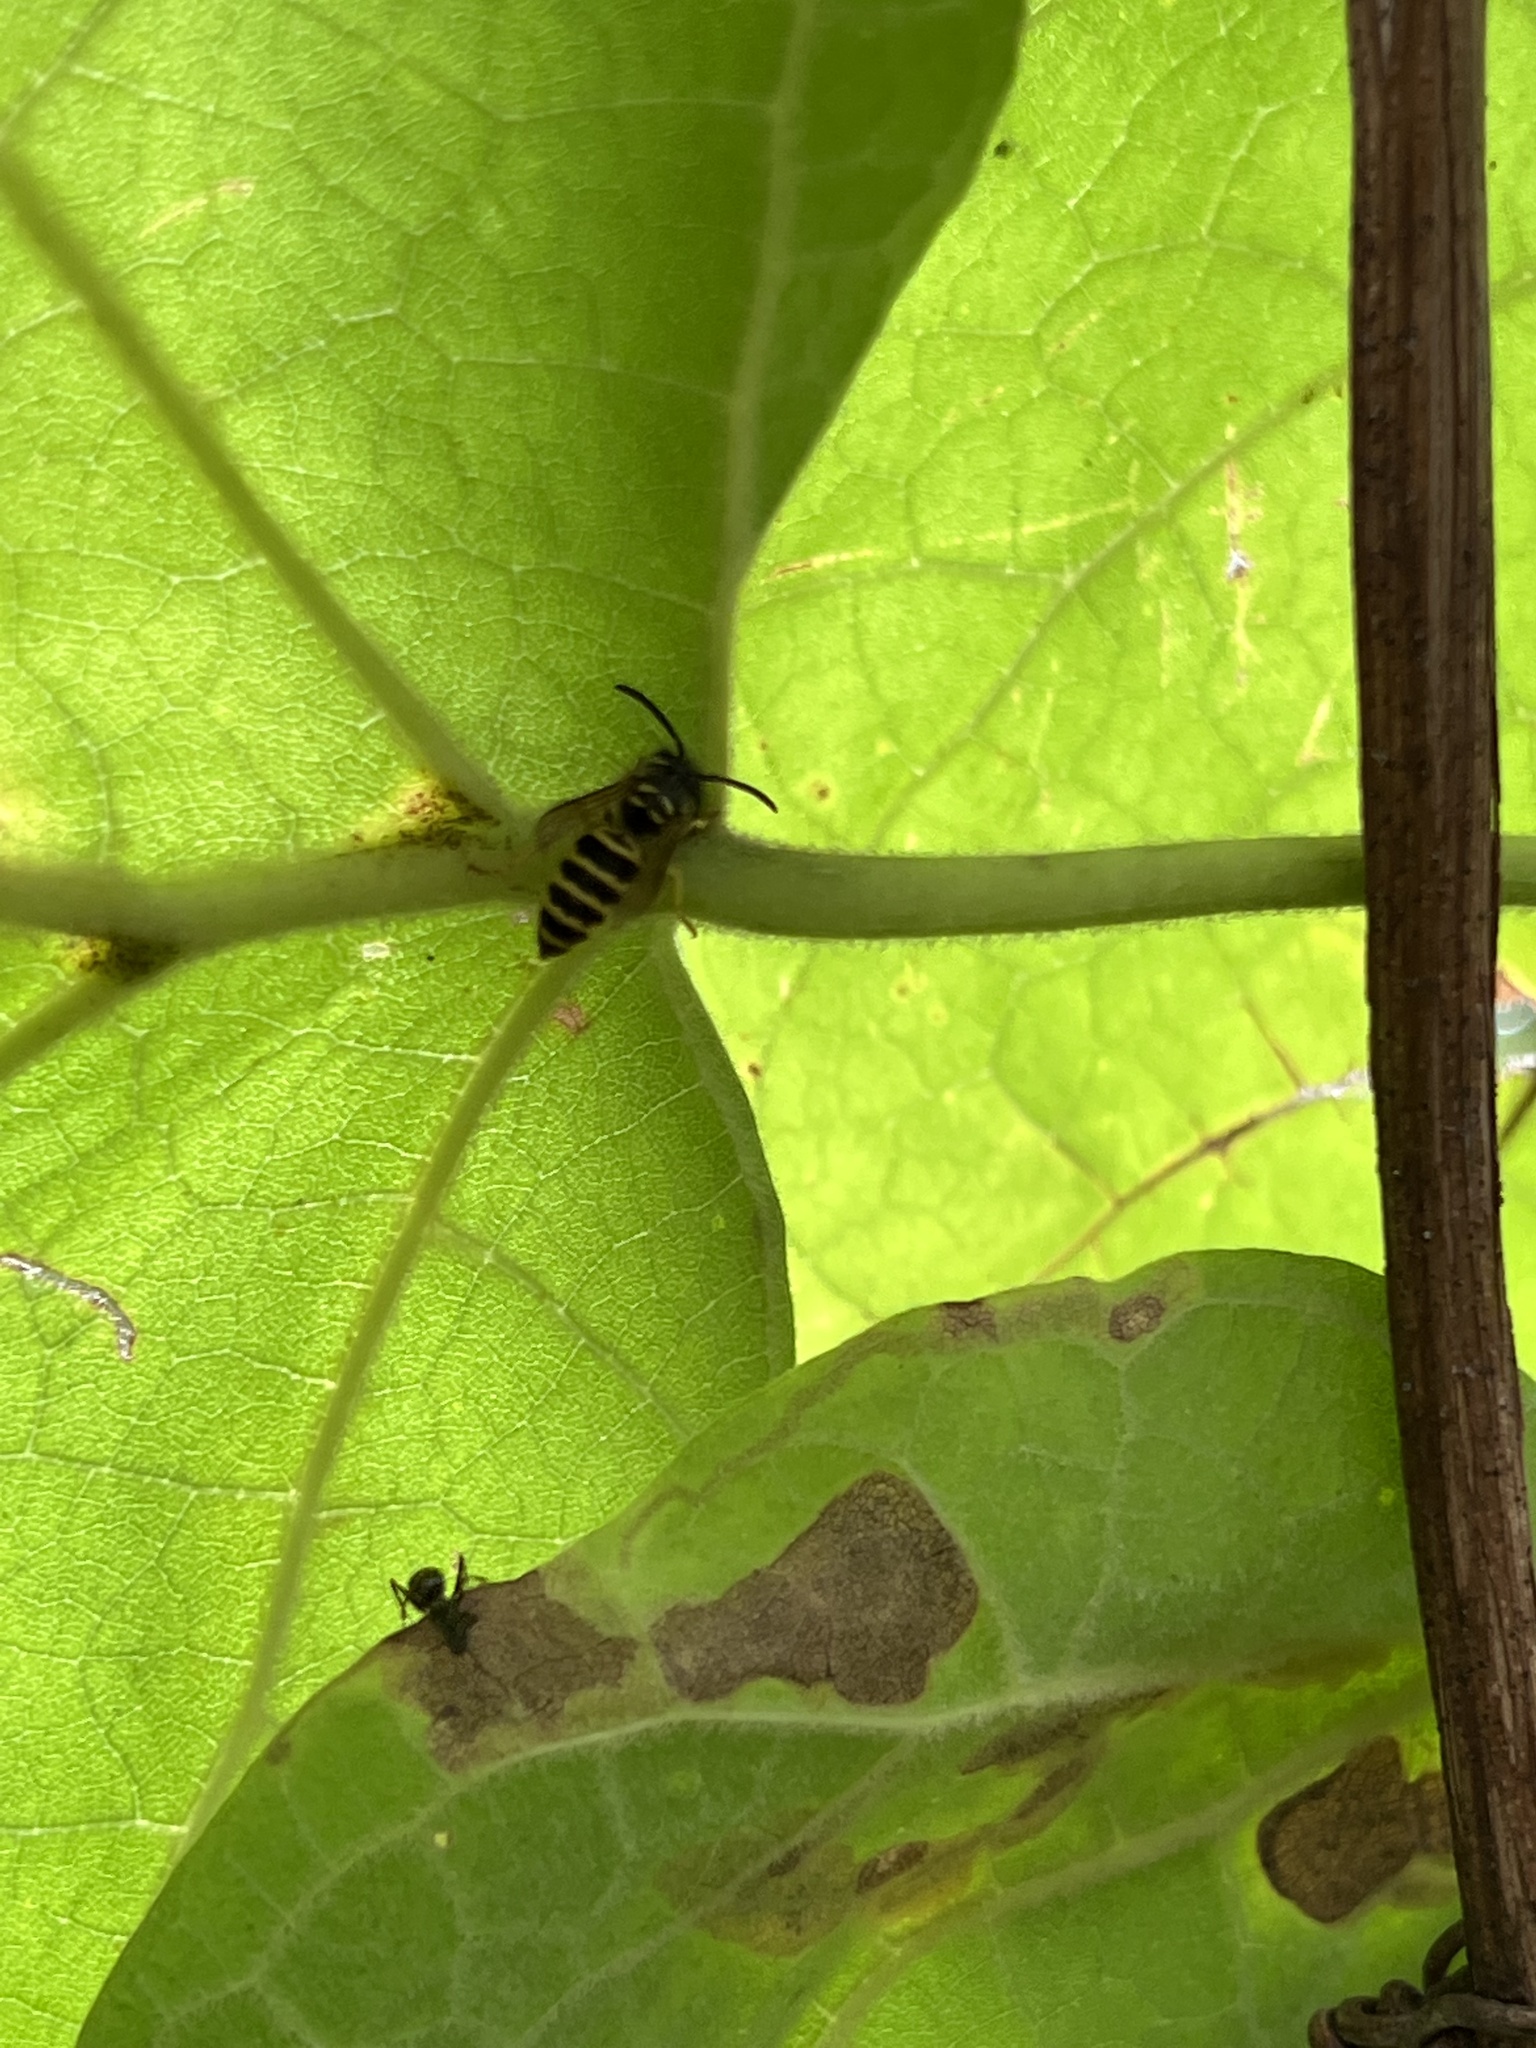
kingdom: Animalia
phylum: Arthropoda
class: Insecta
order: Hymenoptera
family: Vespidae
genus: Vespula
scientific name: Vespula maculifrons
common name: Eastern yellowjacket
